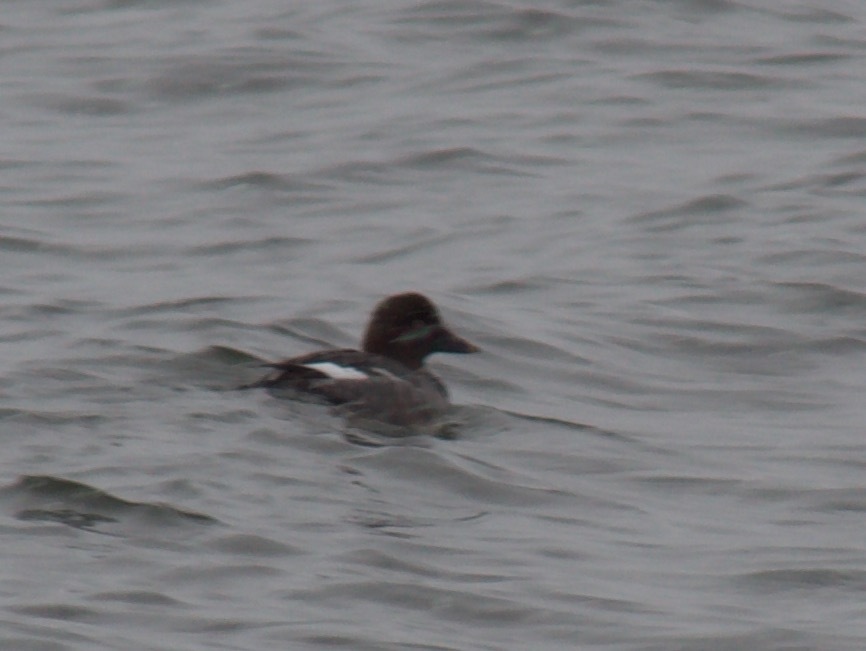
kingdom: Animalia
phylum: Chordata
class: Aves
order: Anseriformes
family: Anatidae
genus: Bucephala
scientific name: Bucephala clangula
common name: Common goldeneye
